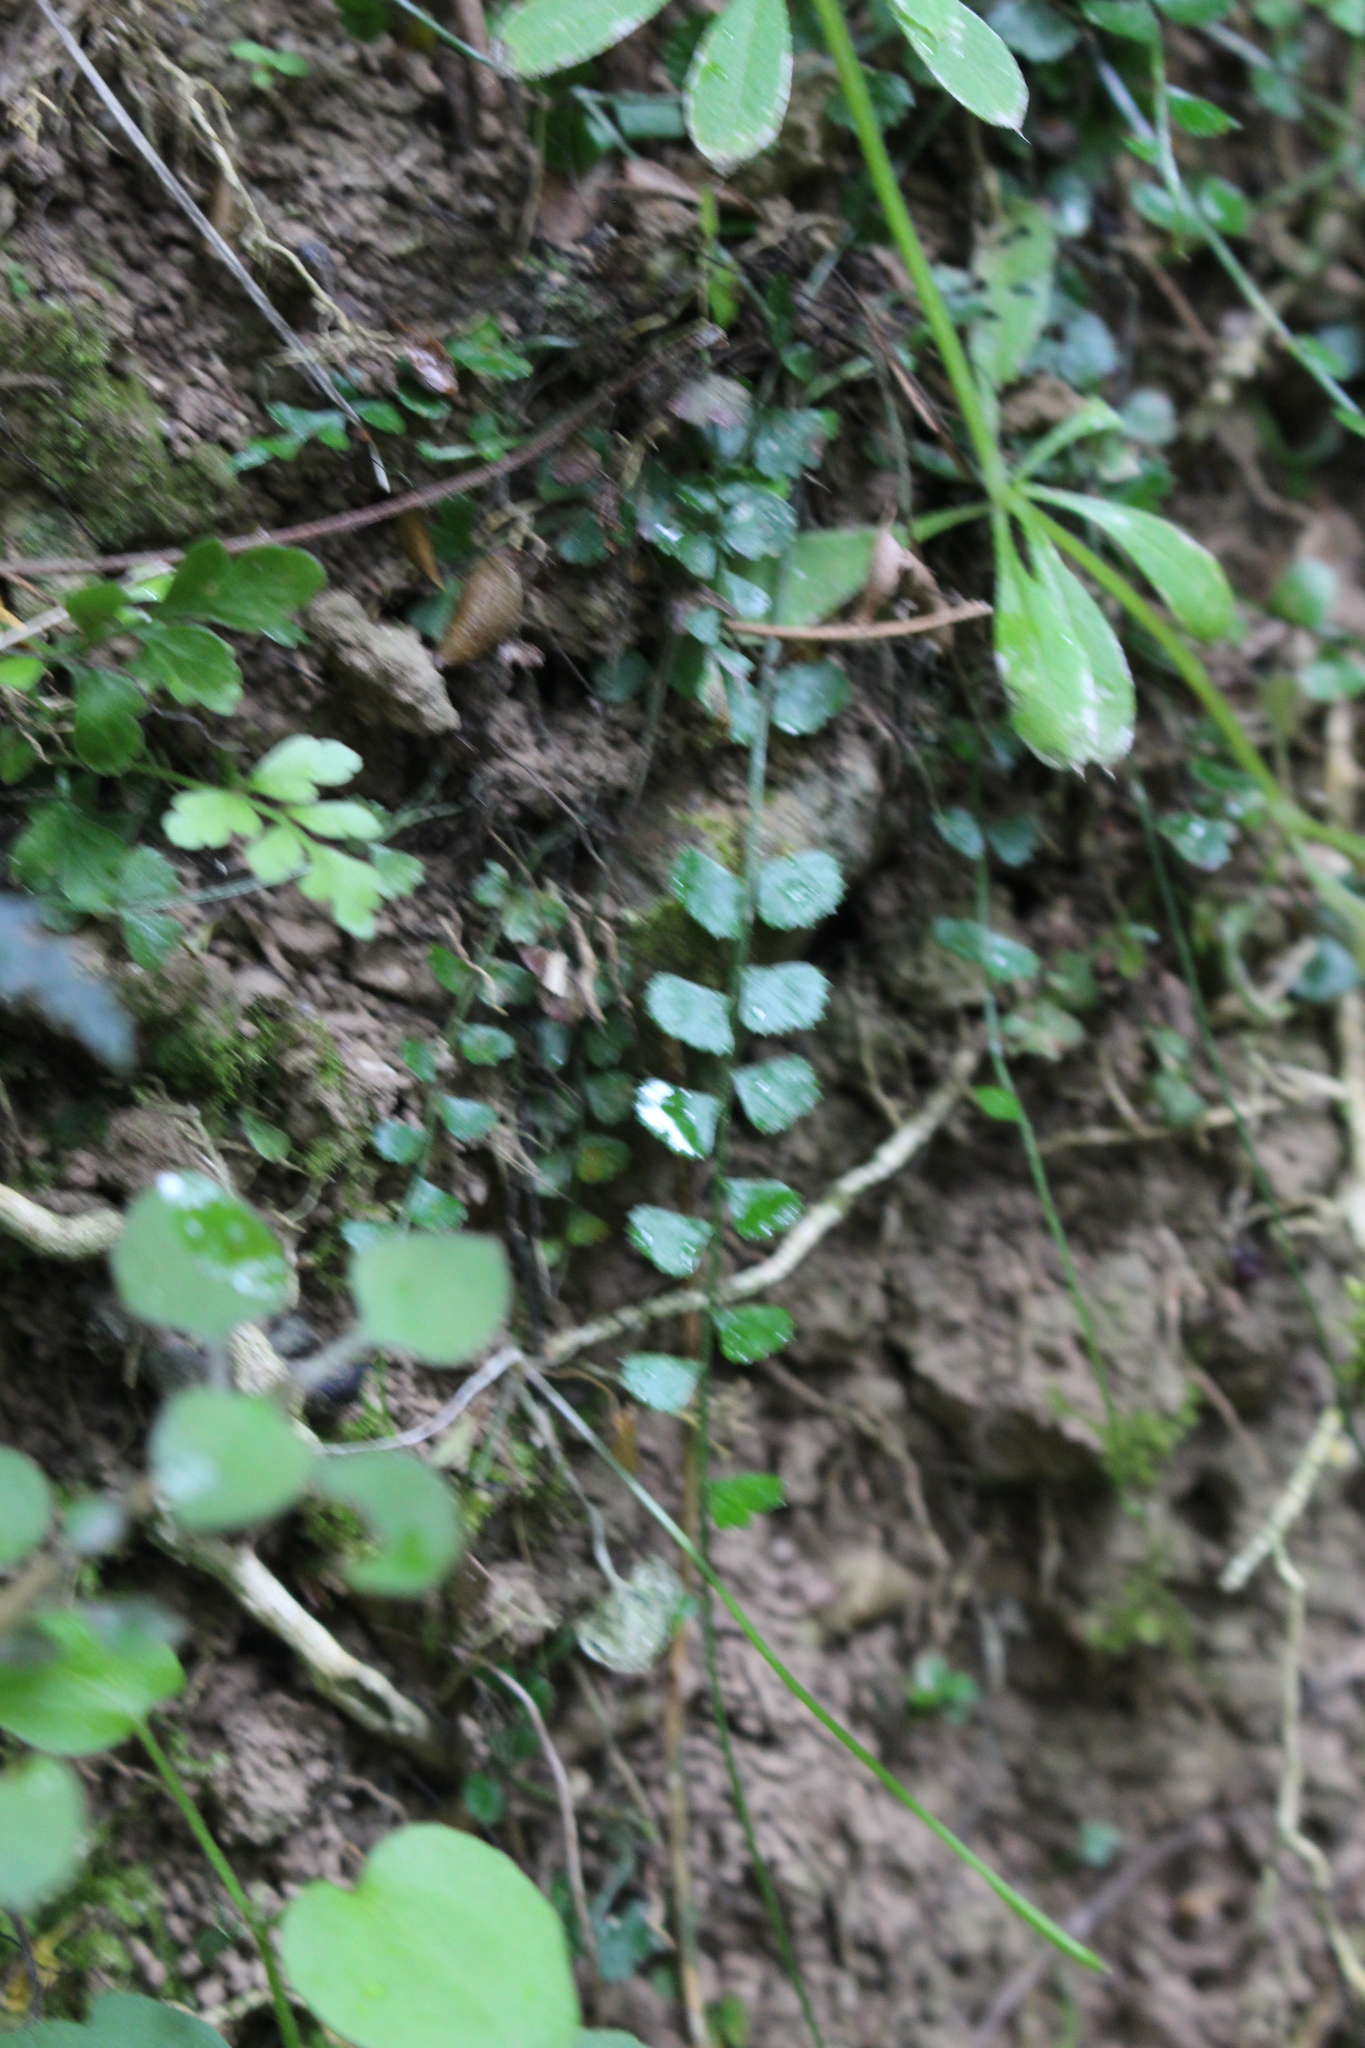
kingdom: Plantae
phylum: Tracheophyta
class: Polypodiopsida
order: Polypodiales
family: Aspleniaceae
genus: Asplenium
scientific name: Asplenium flabellifolium
